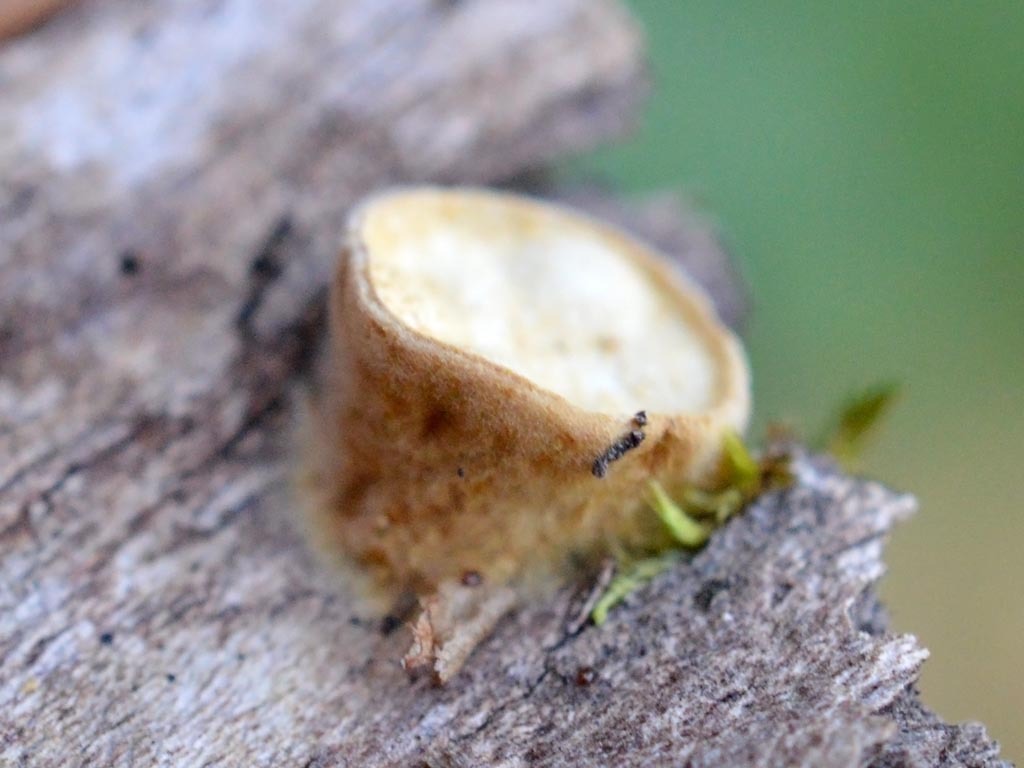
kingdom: Fungi
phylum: Basidiomycota
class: Agaricomycetes
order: Agaricales
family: Nidulariaceae
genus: Crucibulum
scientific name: Crucibulum laeve
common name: Common bird's nest
